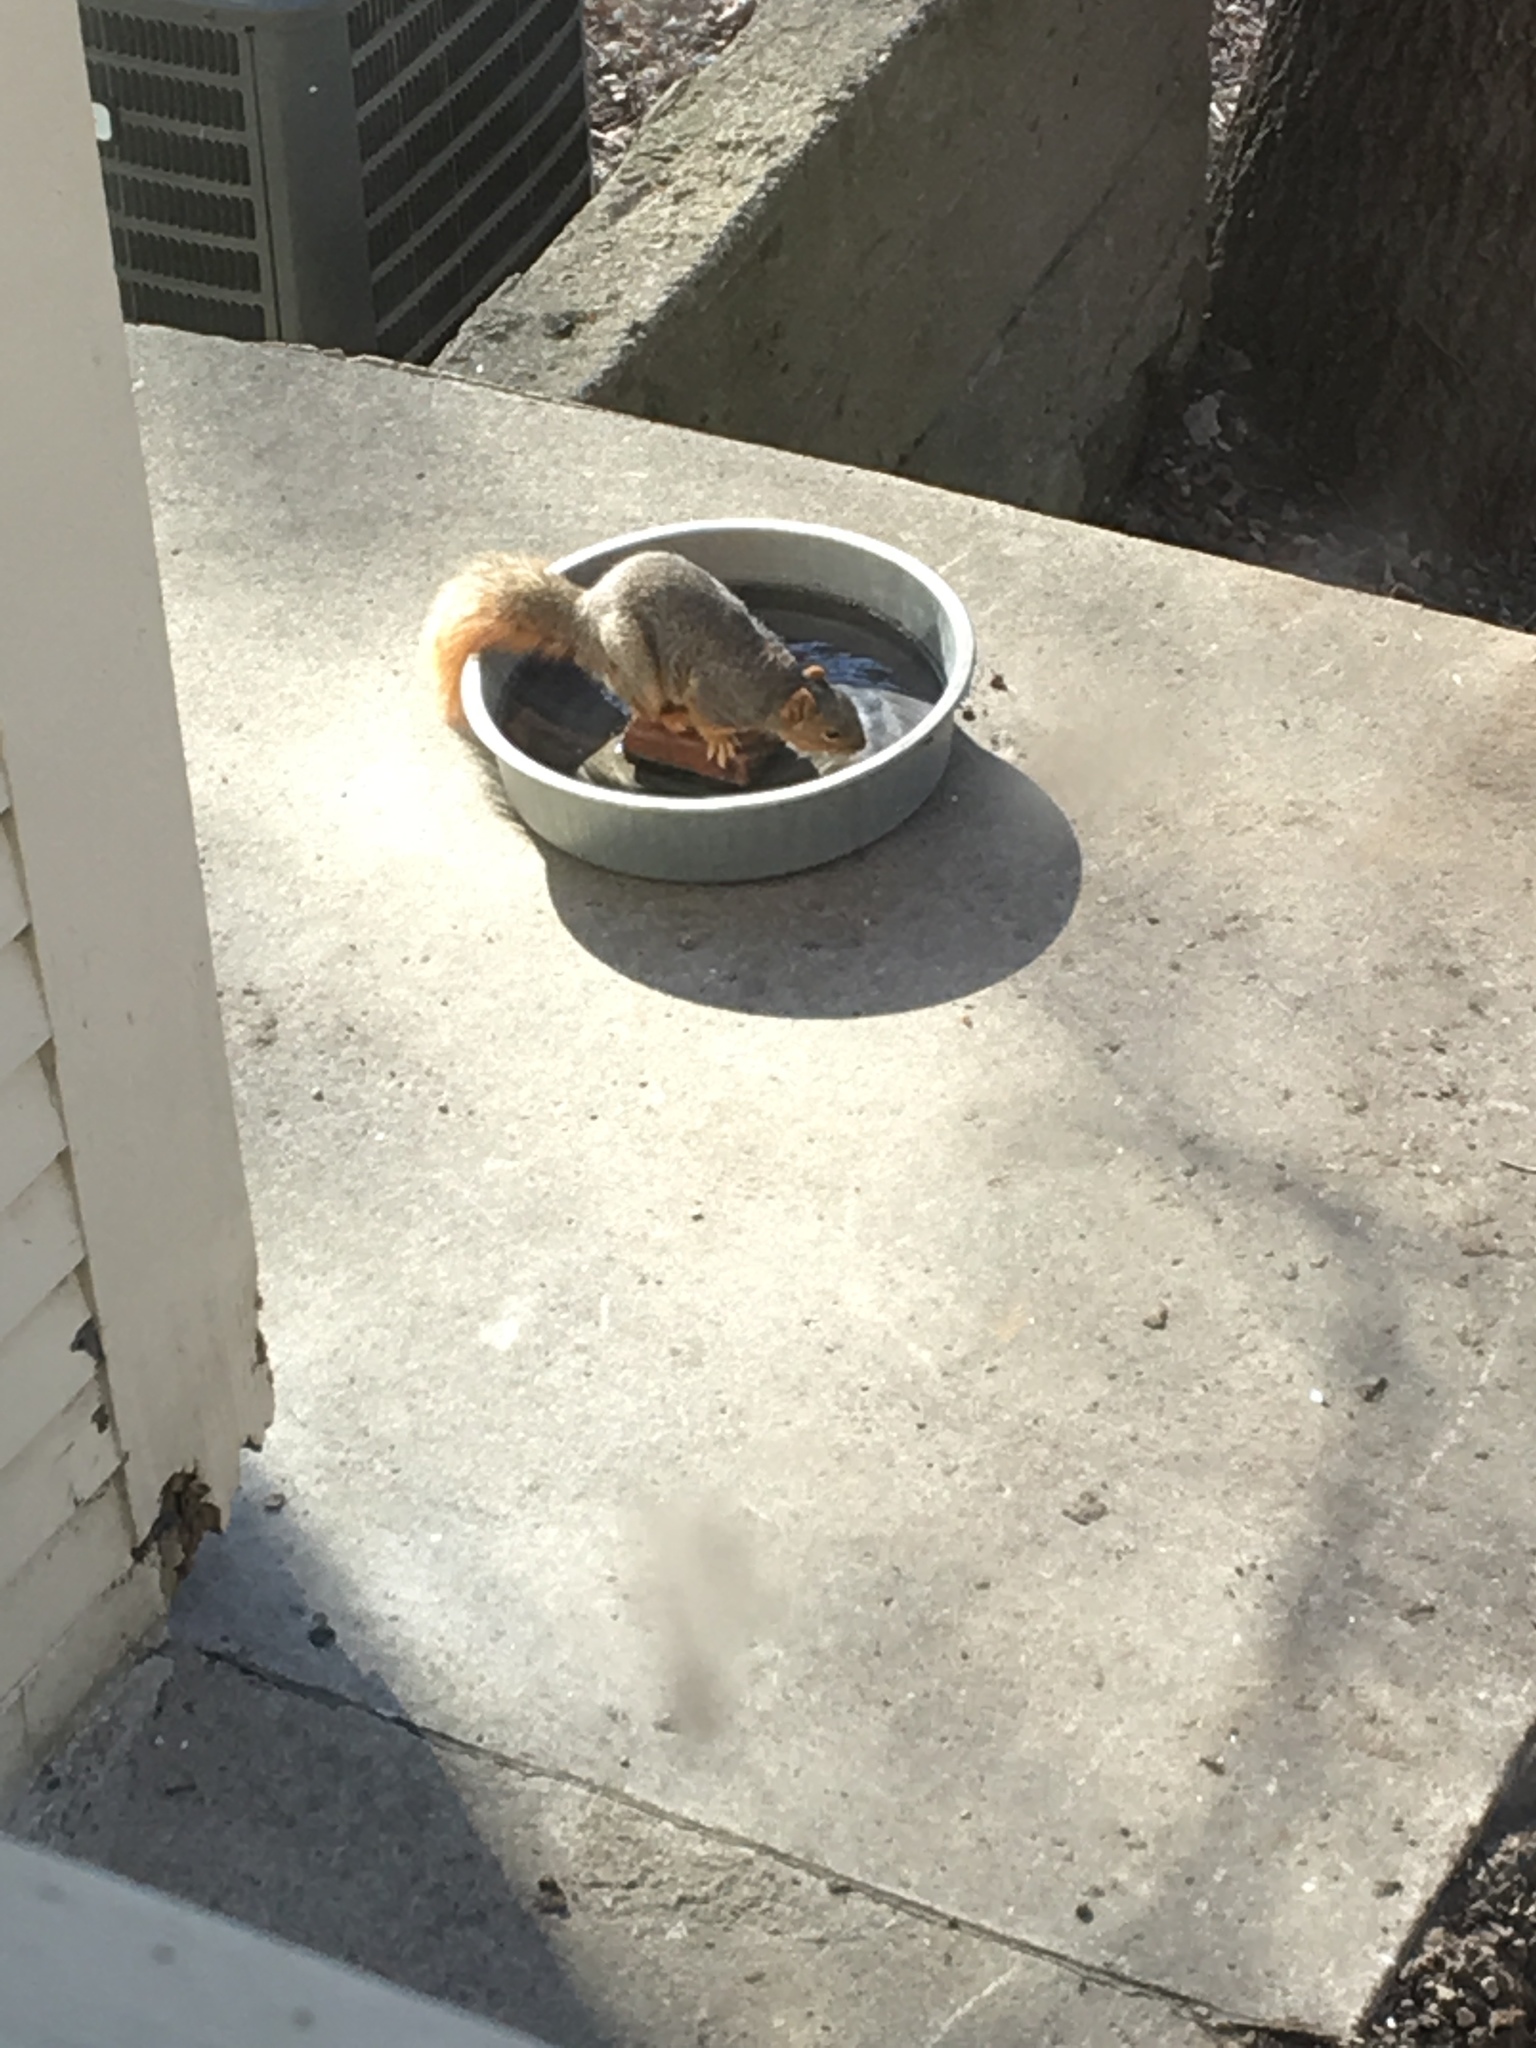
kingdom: Animalia
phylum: Chordata
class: Mammalia
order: Rodentia
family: Sciuridae
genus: Sciurus
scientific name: Sciurus niger
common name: Fox squirrel
